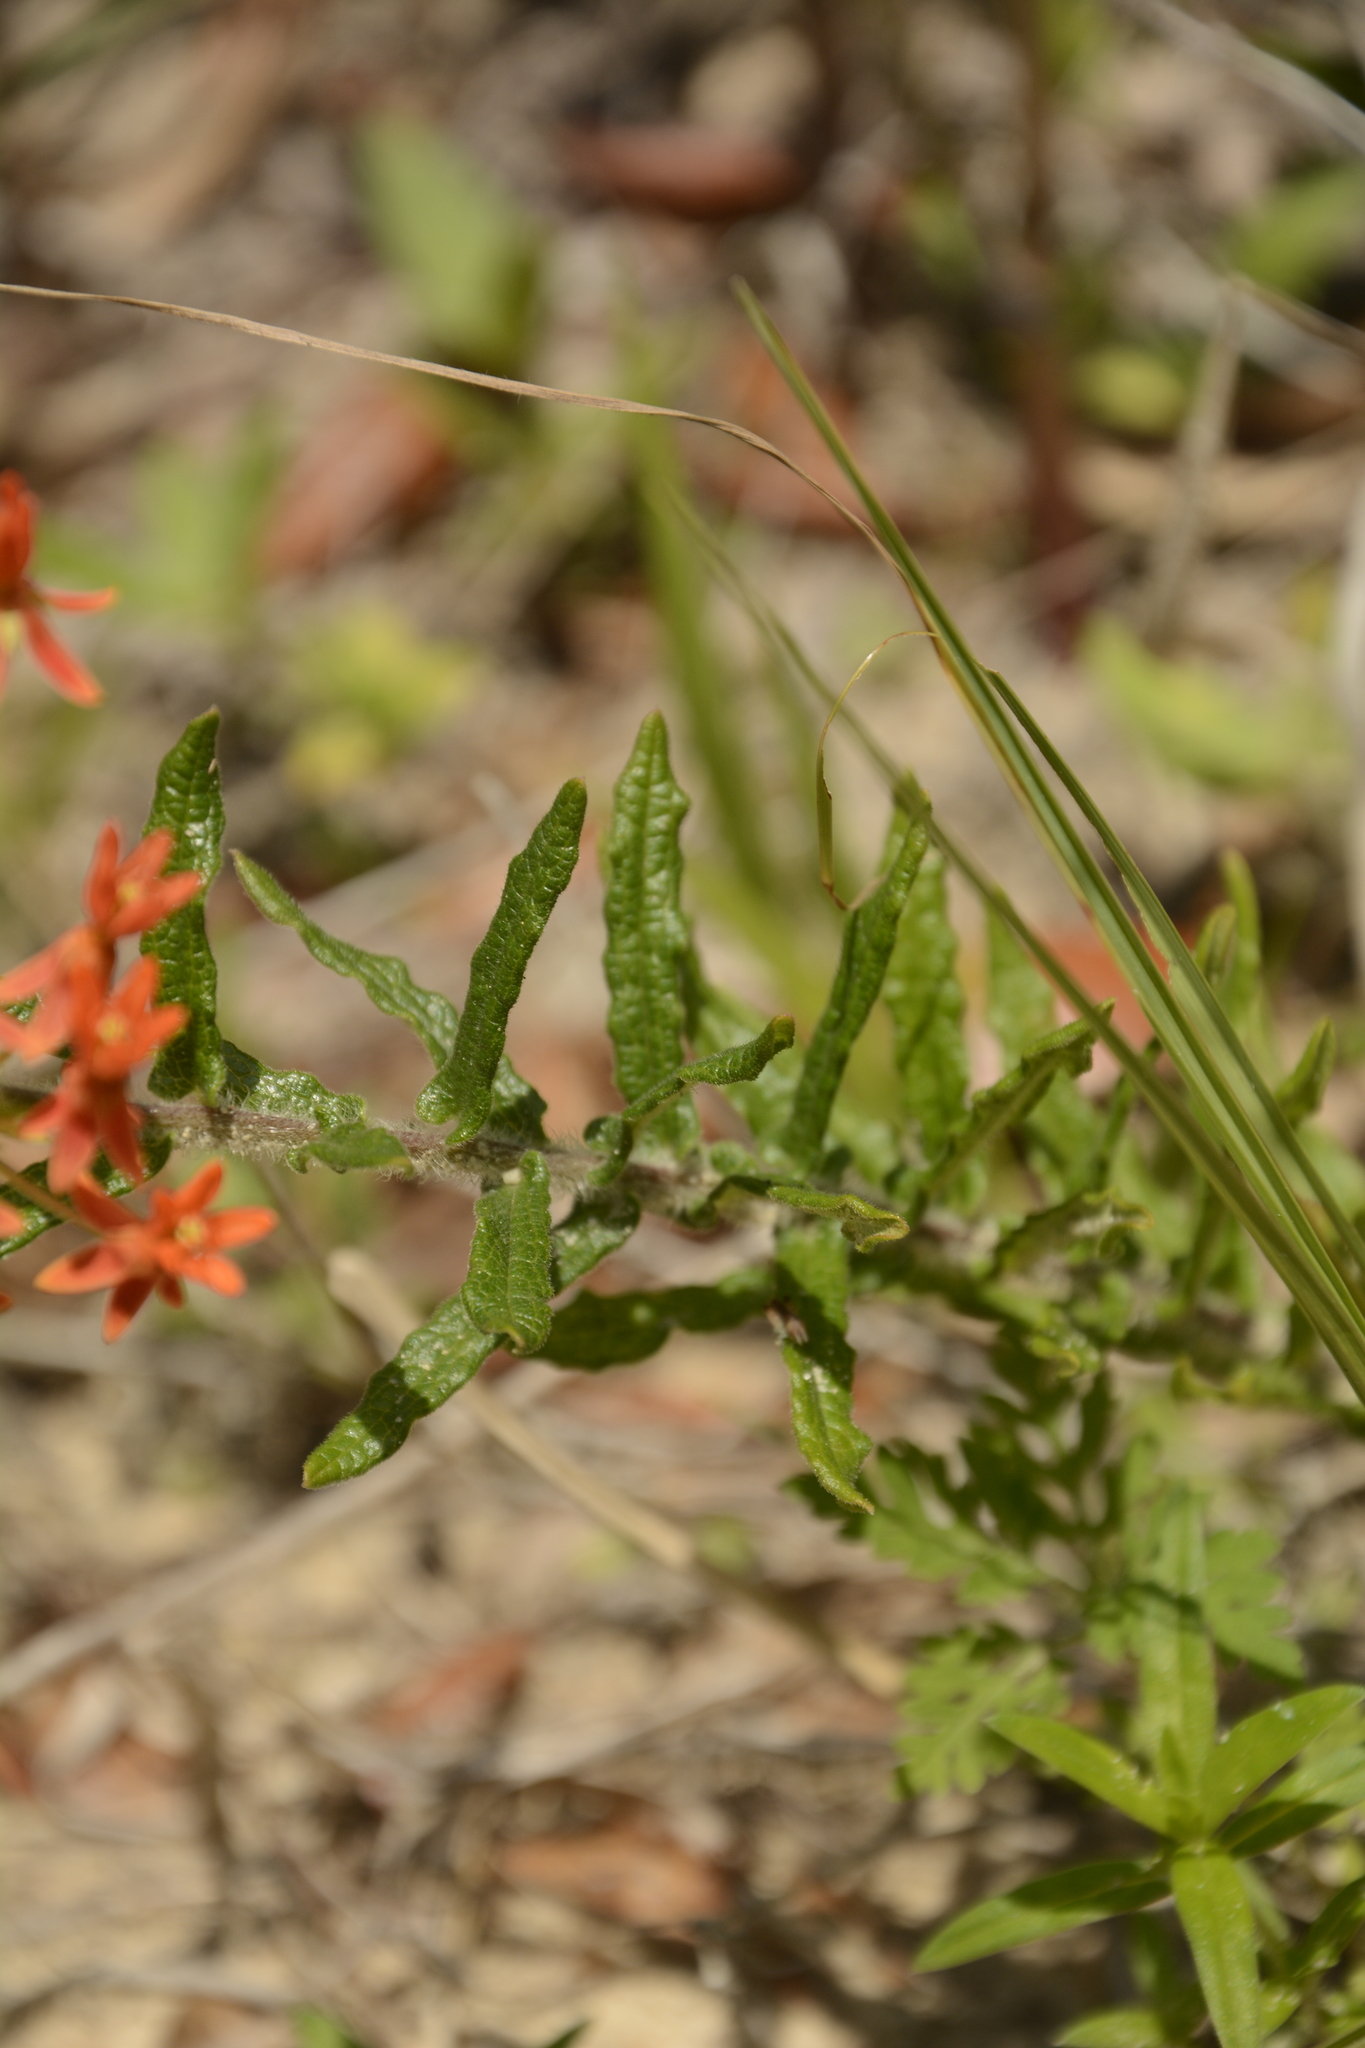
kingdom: Plantae
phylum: Tracheophyta
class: Magnoliopsida
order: Gentianales
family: Apocynaceae
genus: Asclepias
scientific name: Asclepias tuberosa
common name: Butterfly milkweed
